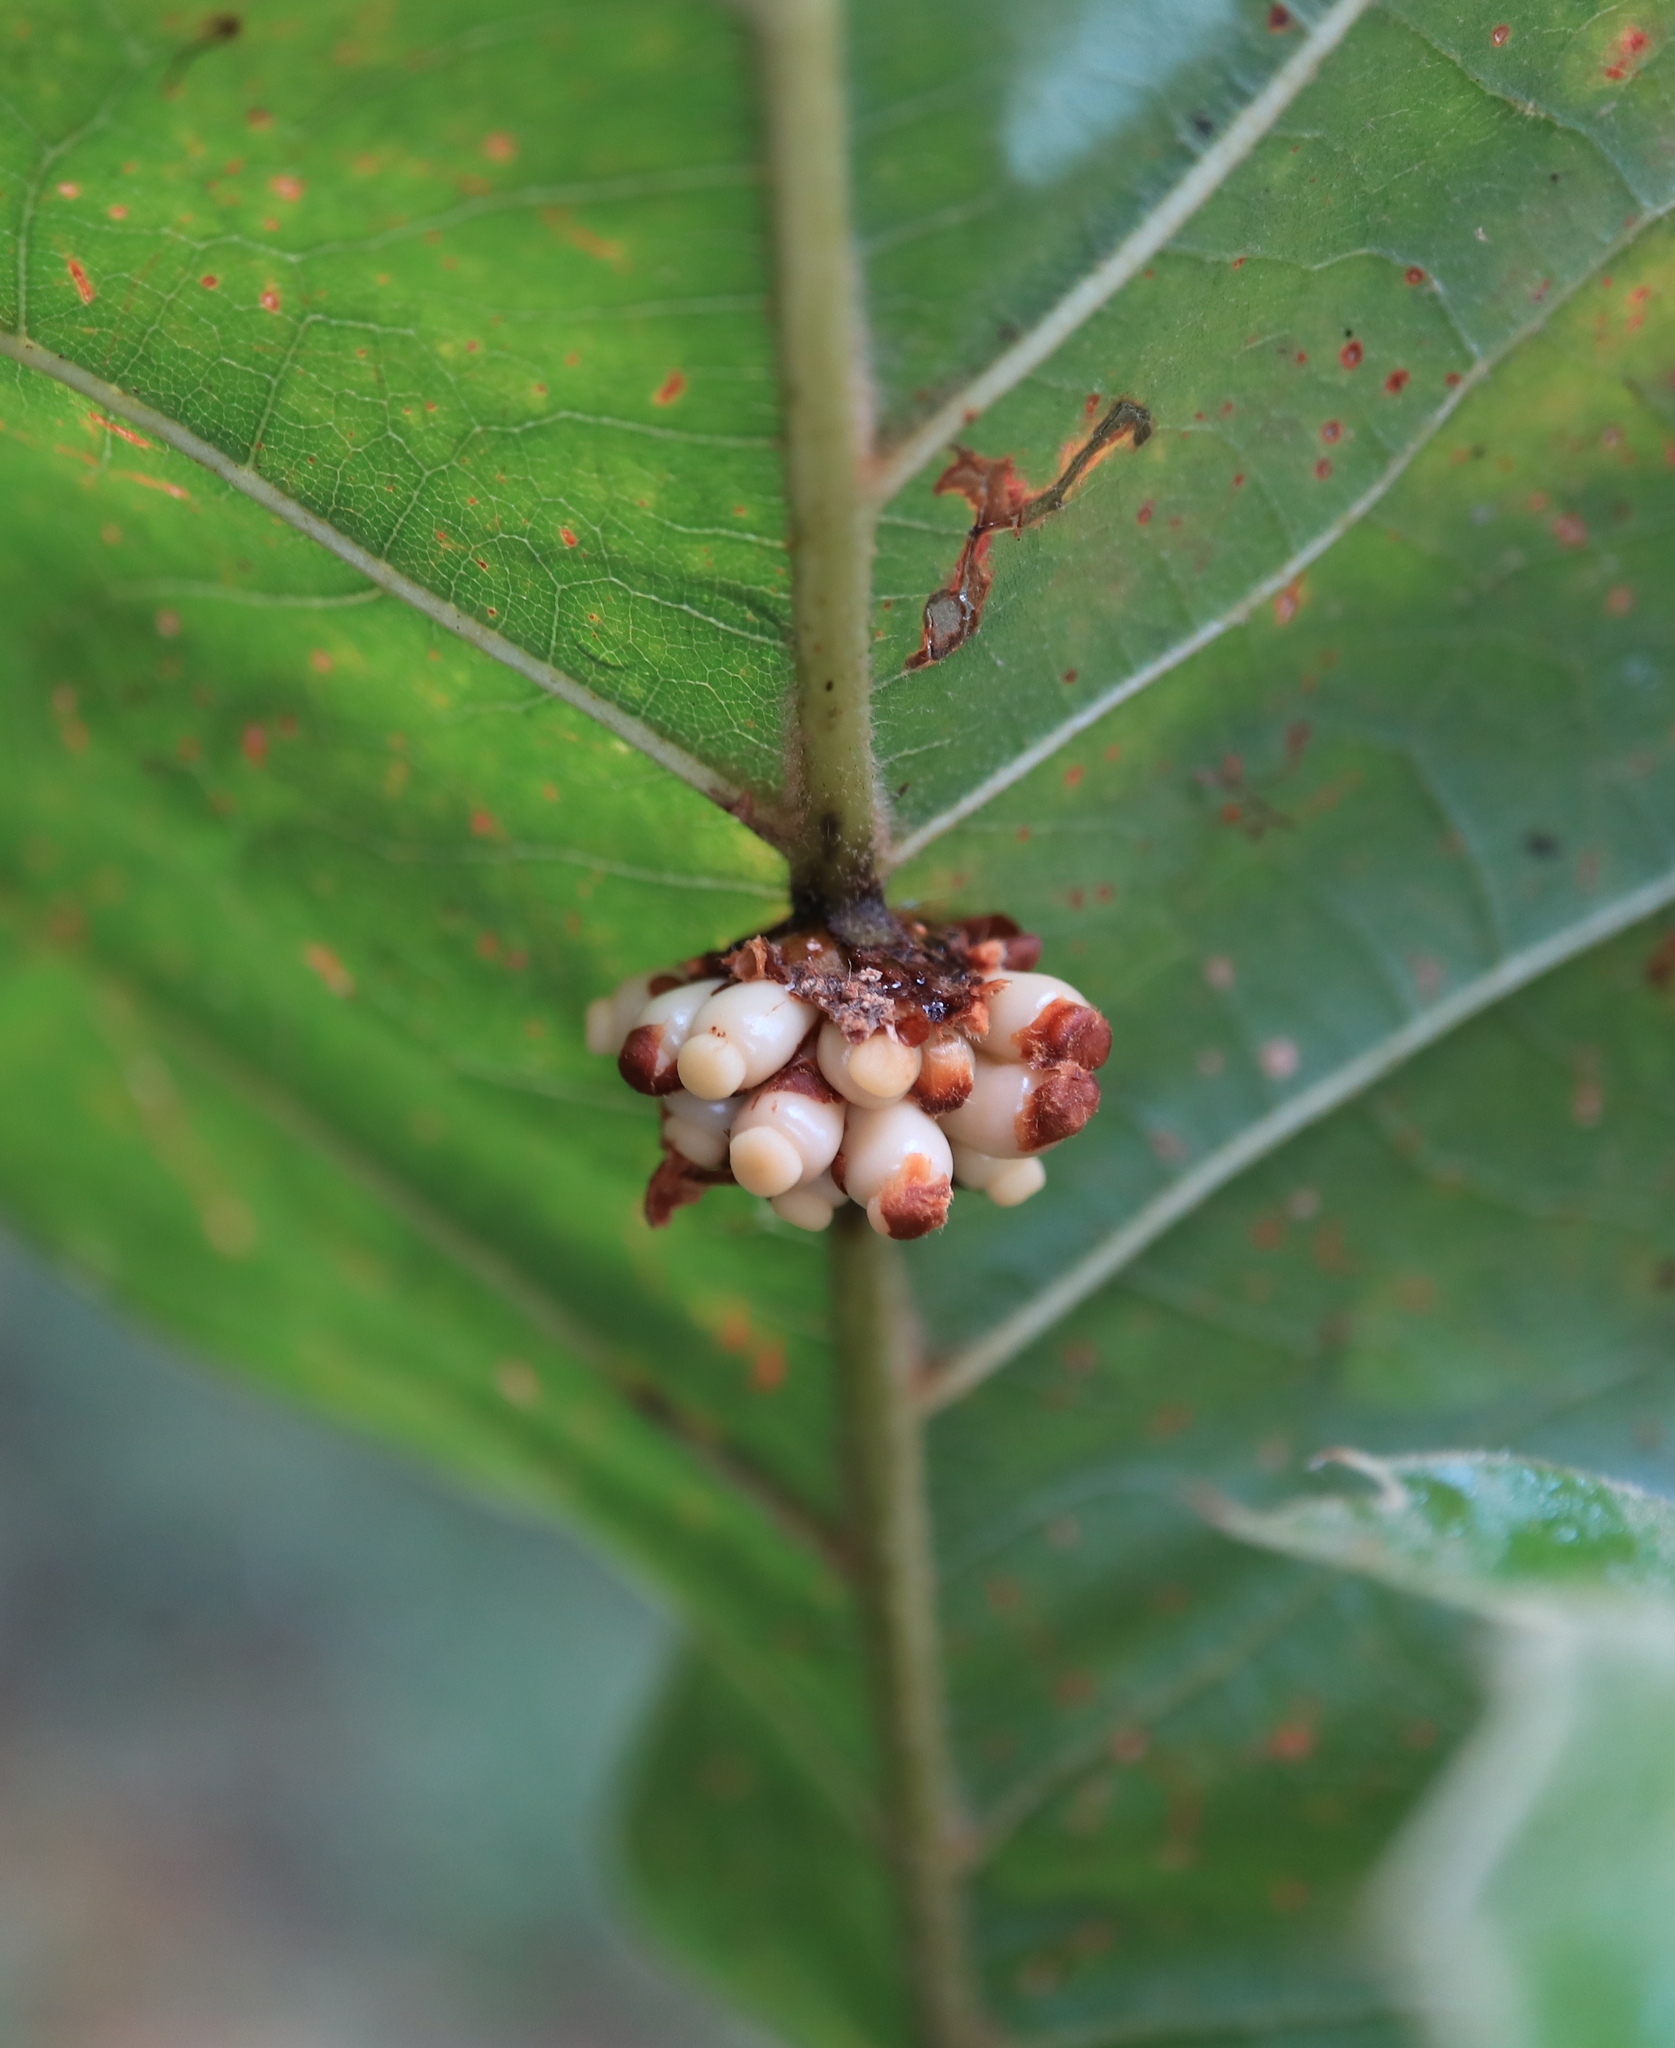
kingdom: Animalia
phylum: Arthropoda
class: Insecta
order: Hymenoptera
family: Cynipidae
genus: Kokkocynips
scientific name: Kokkocynips decidua
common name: Oak wheat gall
